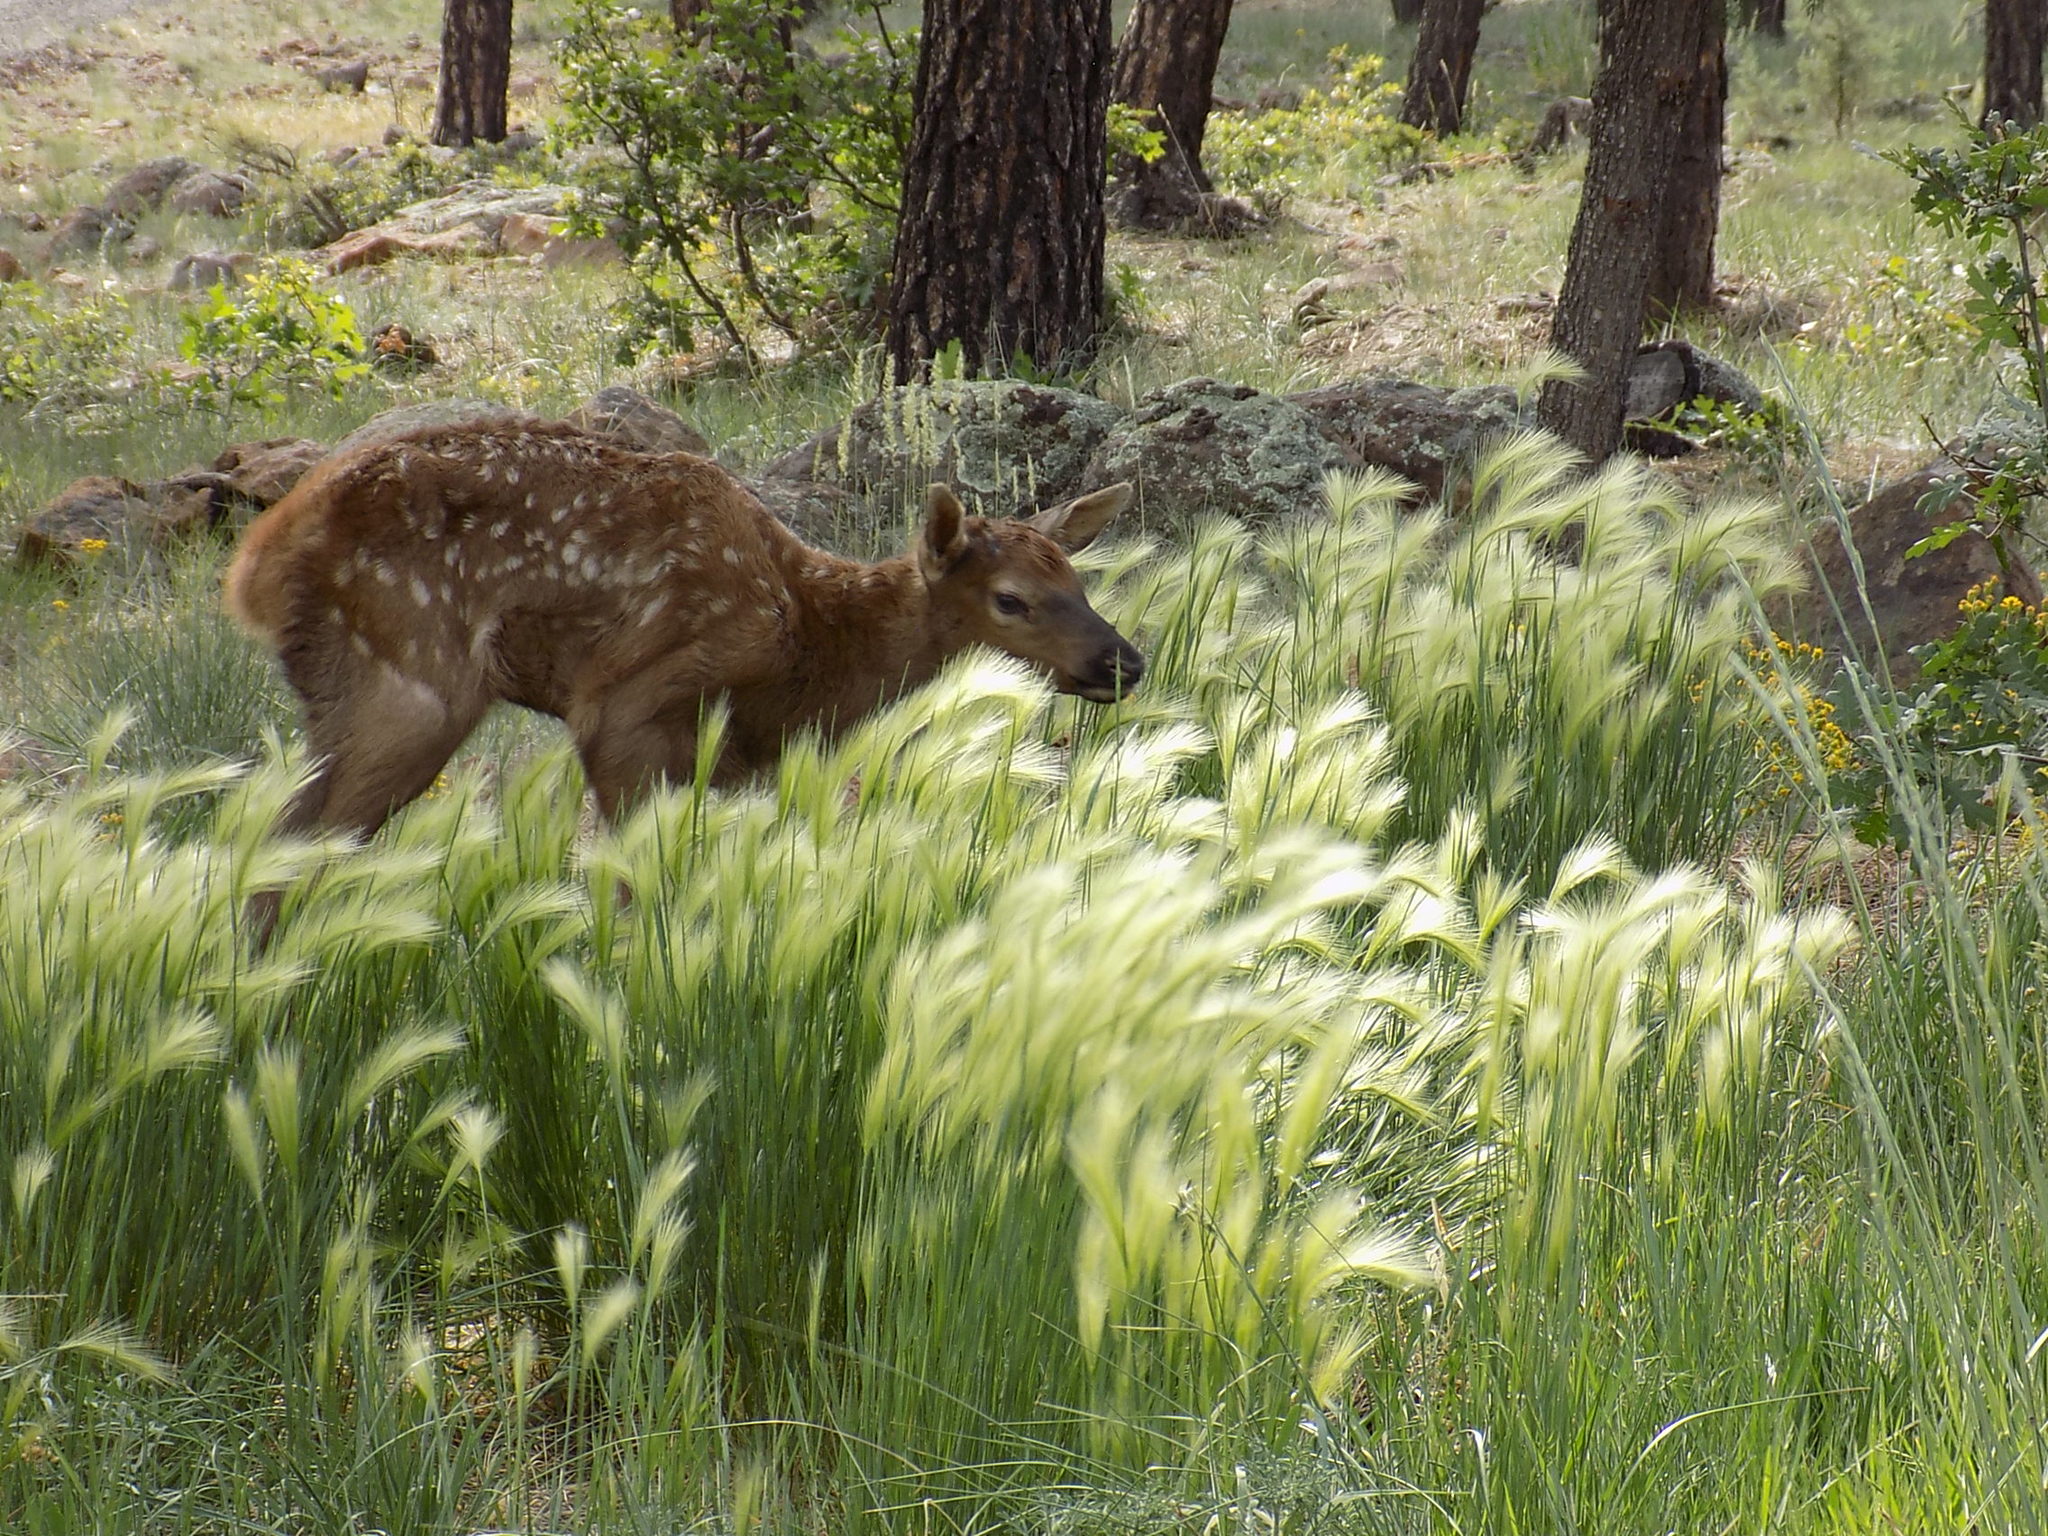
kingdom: Animalia
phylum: Chordata
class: Mammalia
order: Artiodactyla
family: Cervidae
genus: Cervus
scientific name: Cervus elaphus
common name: Red deer
